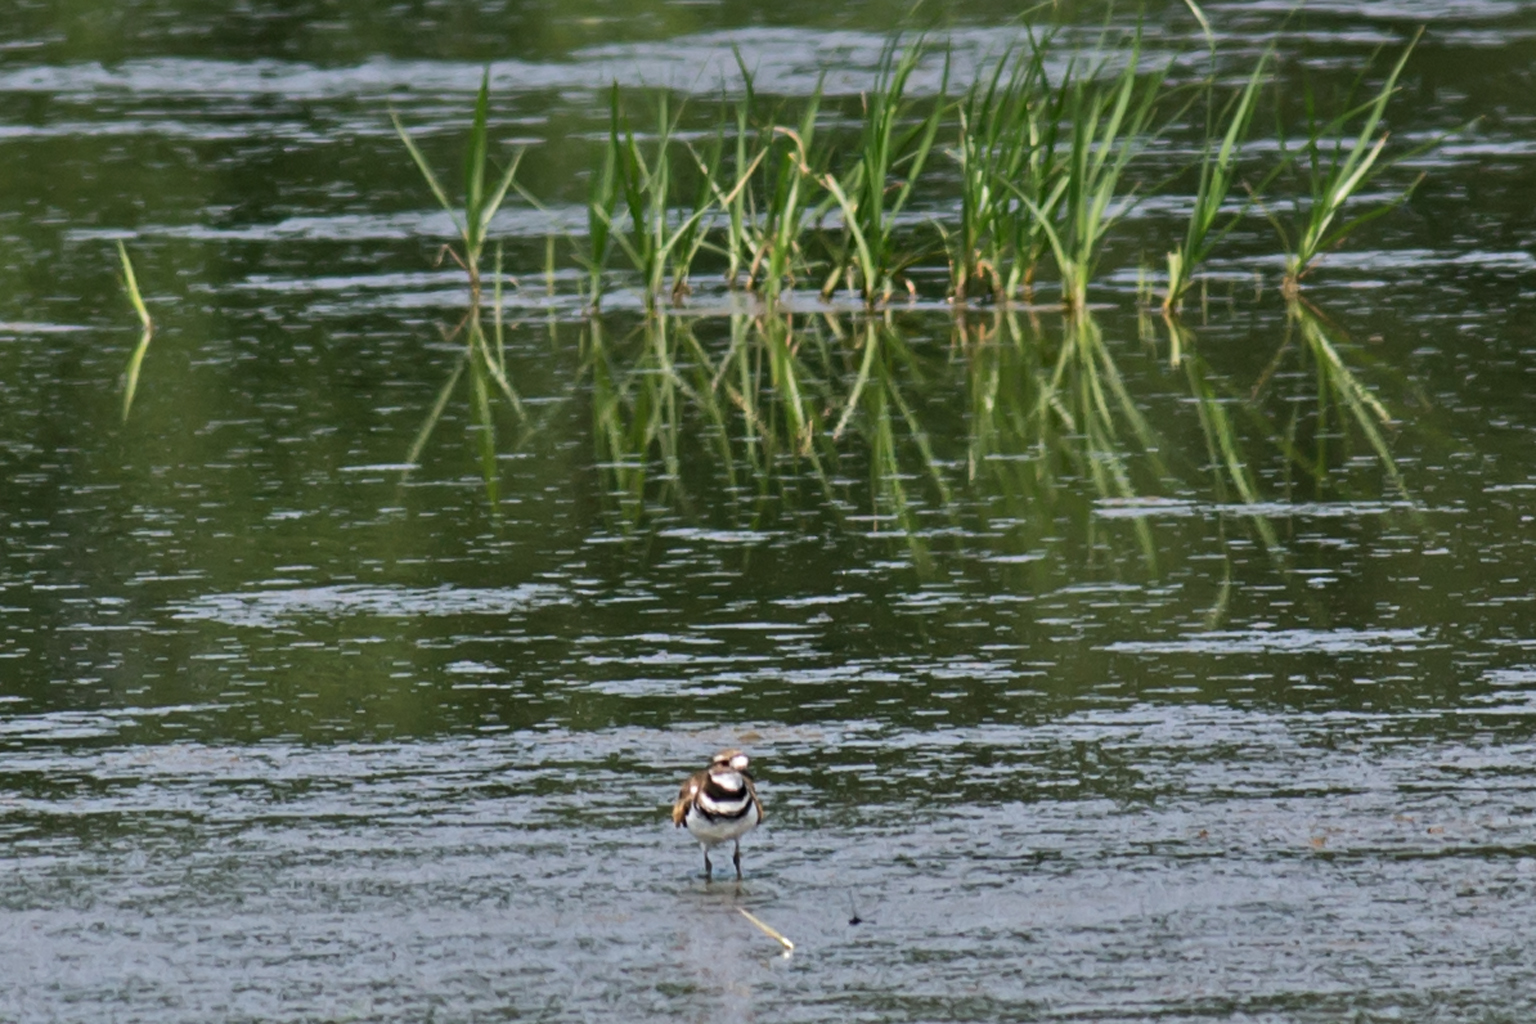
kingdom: Animalia
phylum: Chordata
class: Aves
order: Charadriiformes
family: Charadriidae
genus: Charadrius
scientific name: Charadrius vociferus
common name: Killdeer
